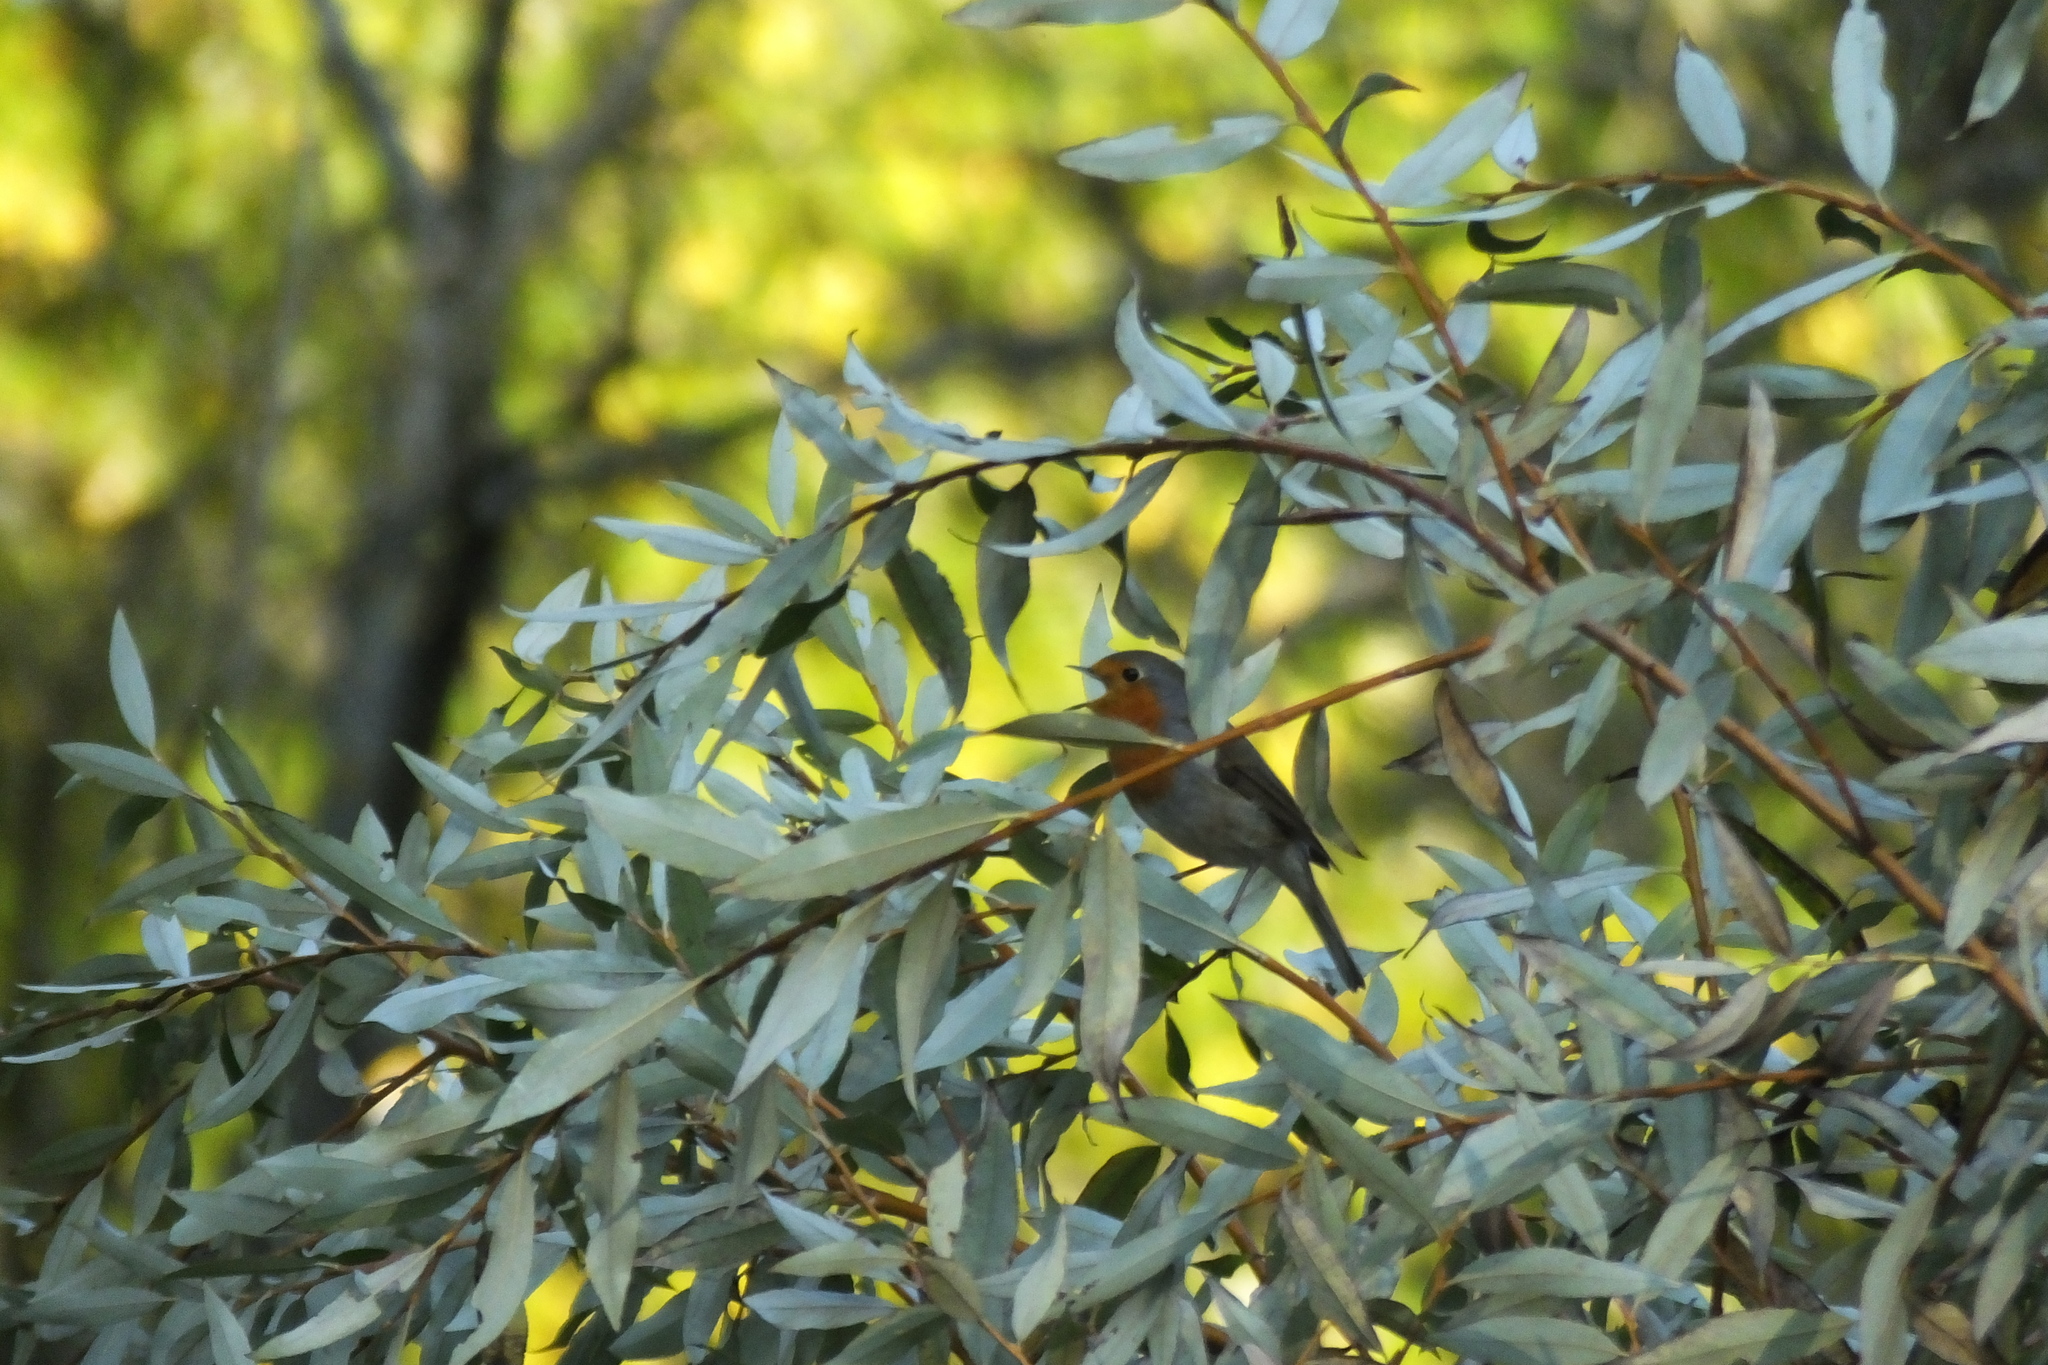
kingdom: Animalia
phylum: Chordata
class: Aves
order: Passeriformes
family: Muscicapidae
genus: Erithacus
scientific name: Erithacus rubecula
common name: European robin
